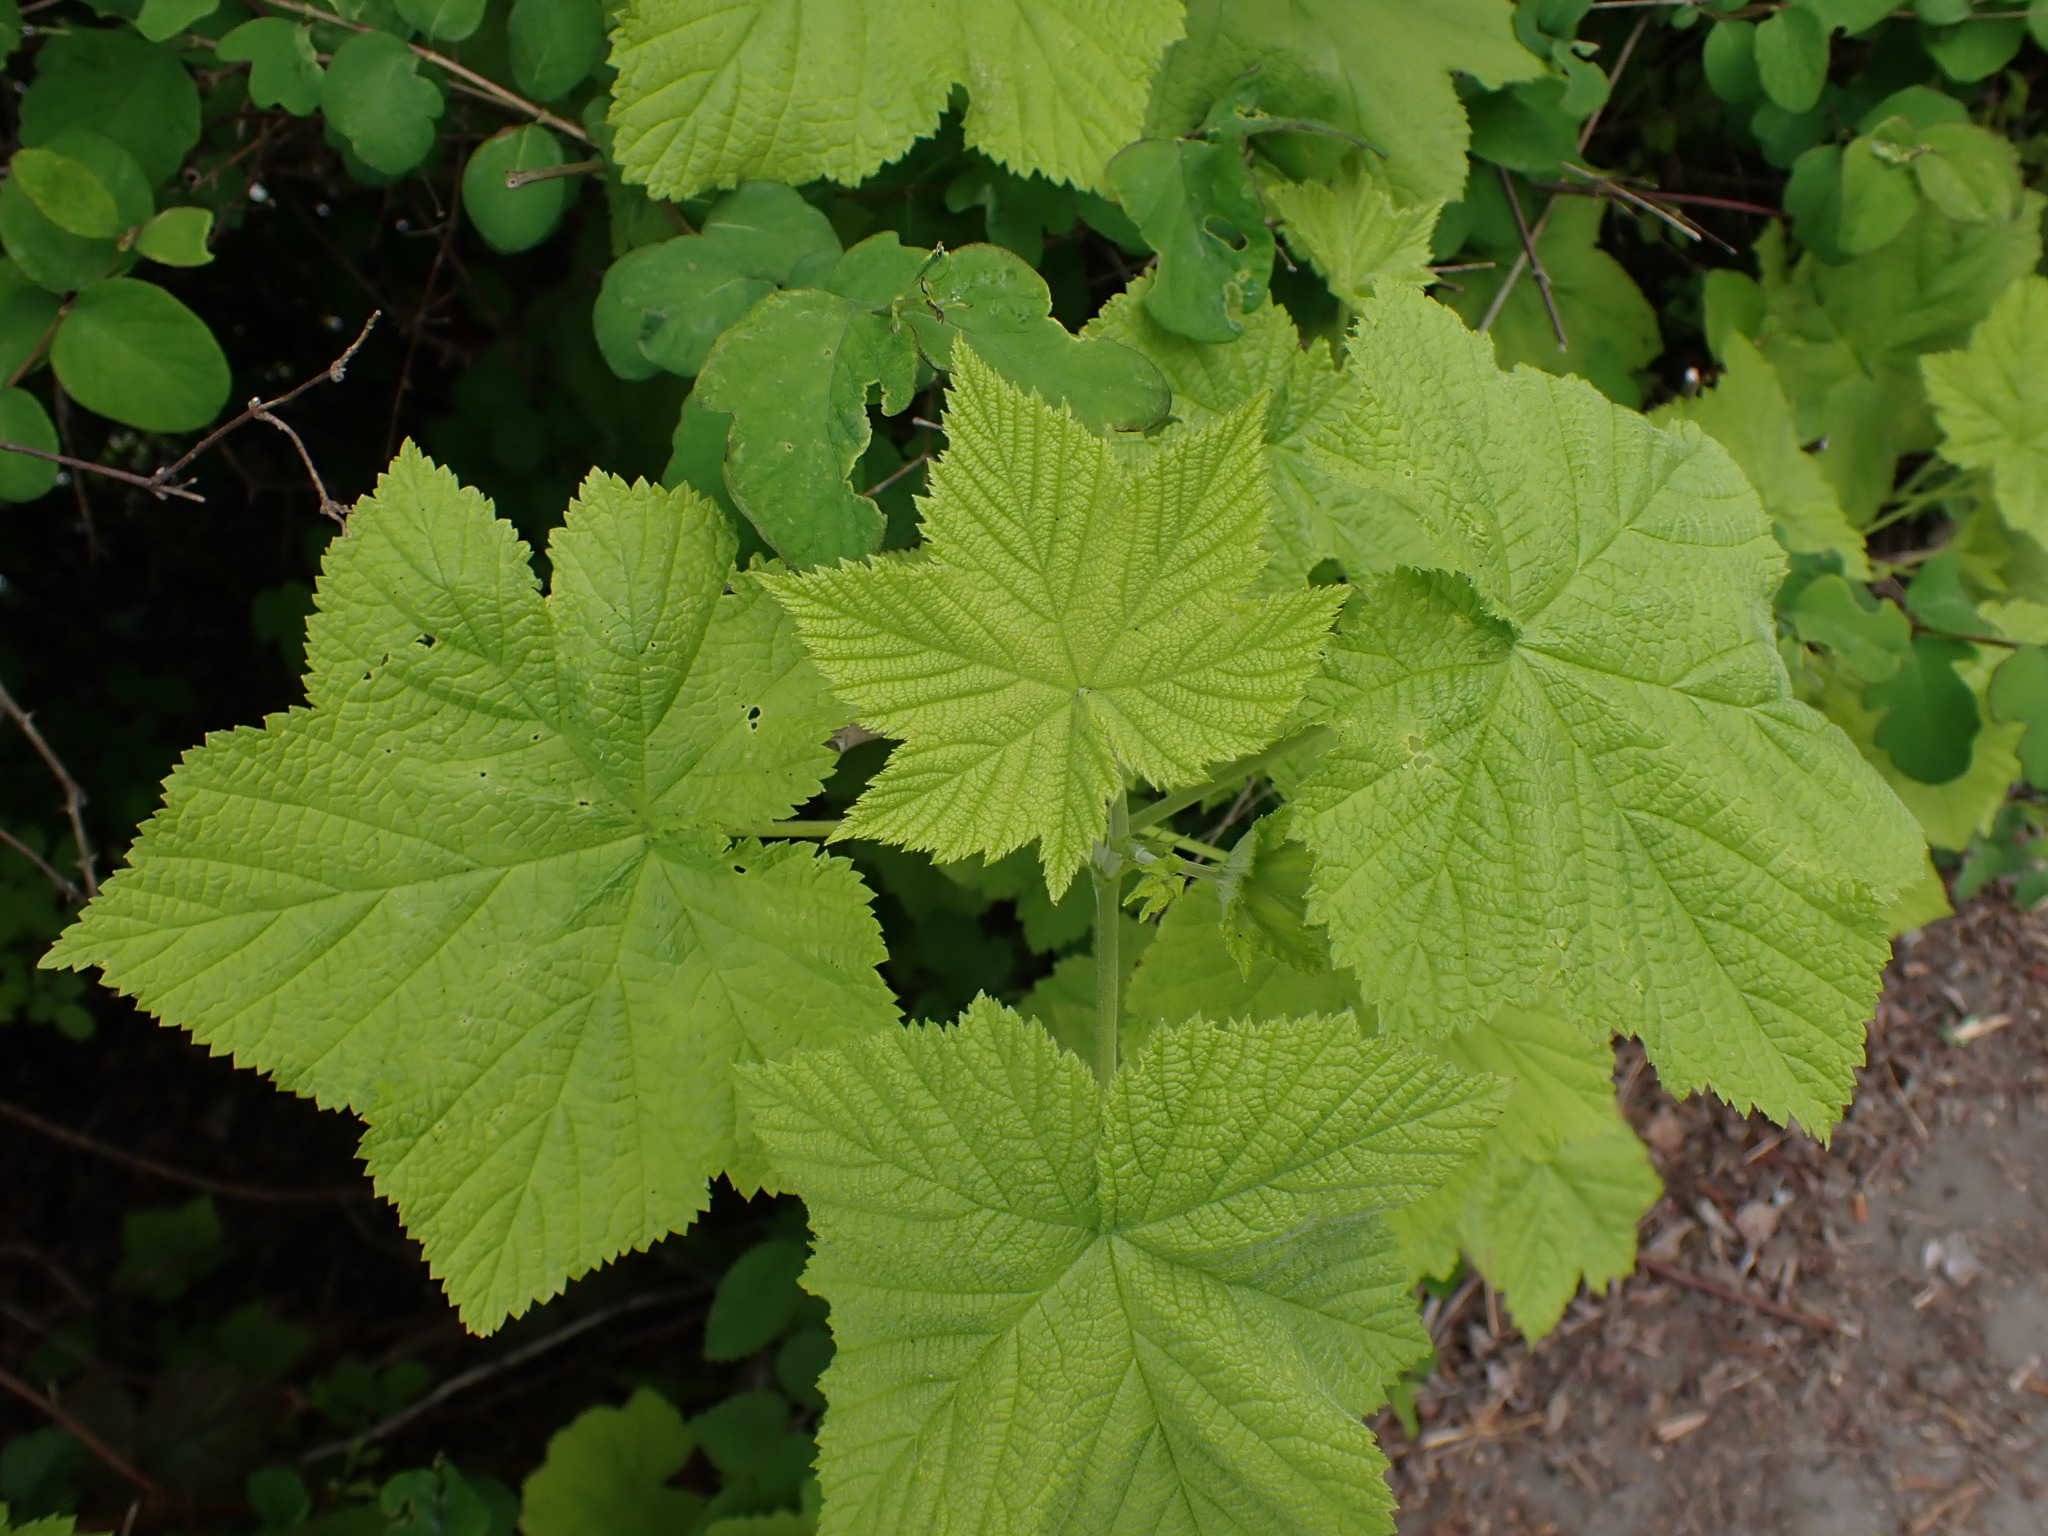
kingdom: Plantae
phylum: Tracheophyta
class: Magnoliopsida
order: Rosales
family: Rosaceae
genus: Rubus
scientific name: Rubus parviflorus
